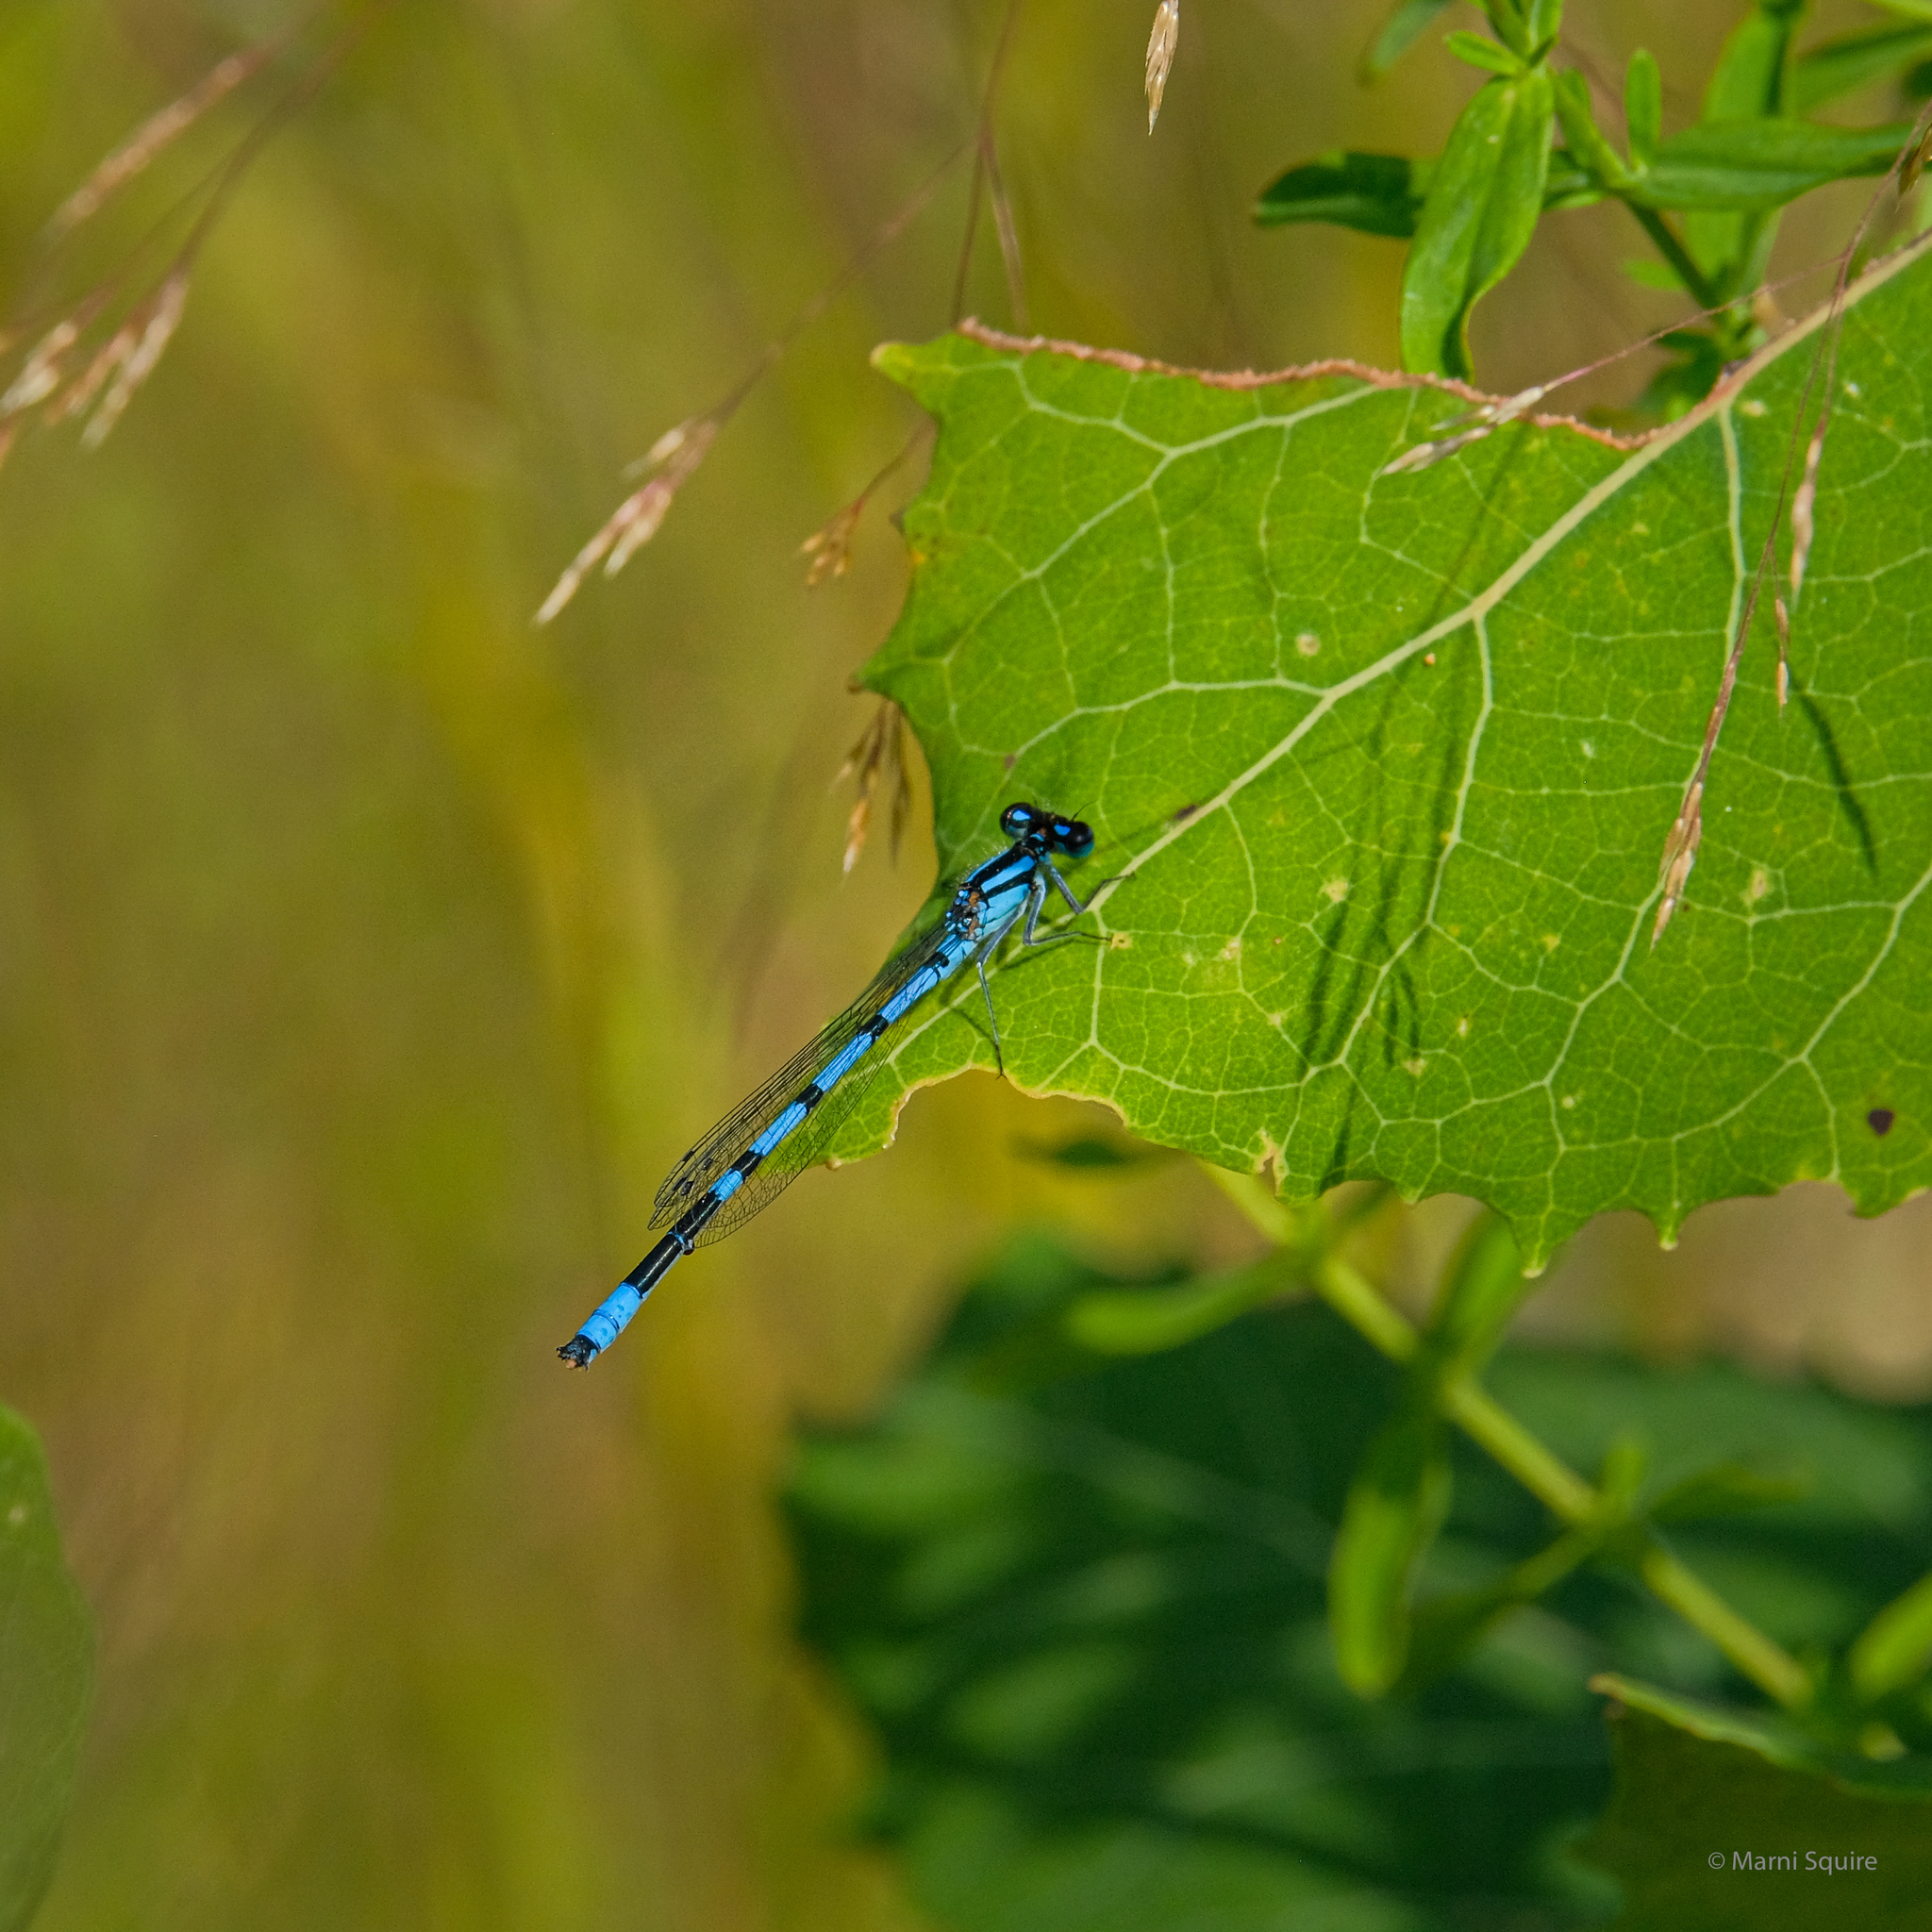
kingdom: Animalia
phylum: Arthropoda
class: Insecta
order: Odonata
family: Coenagrionidae
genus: Enallagma
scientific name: Enallagma ebrium
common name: Marsh bluet
